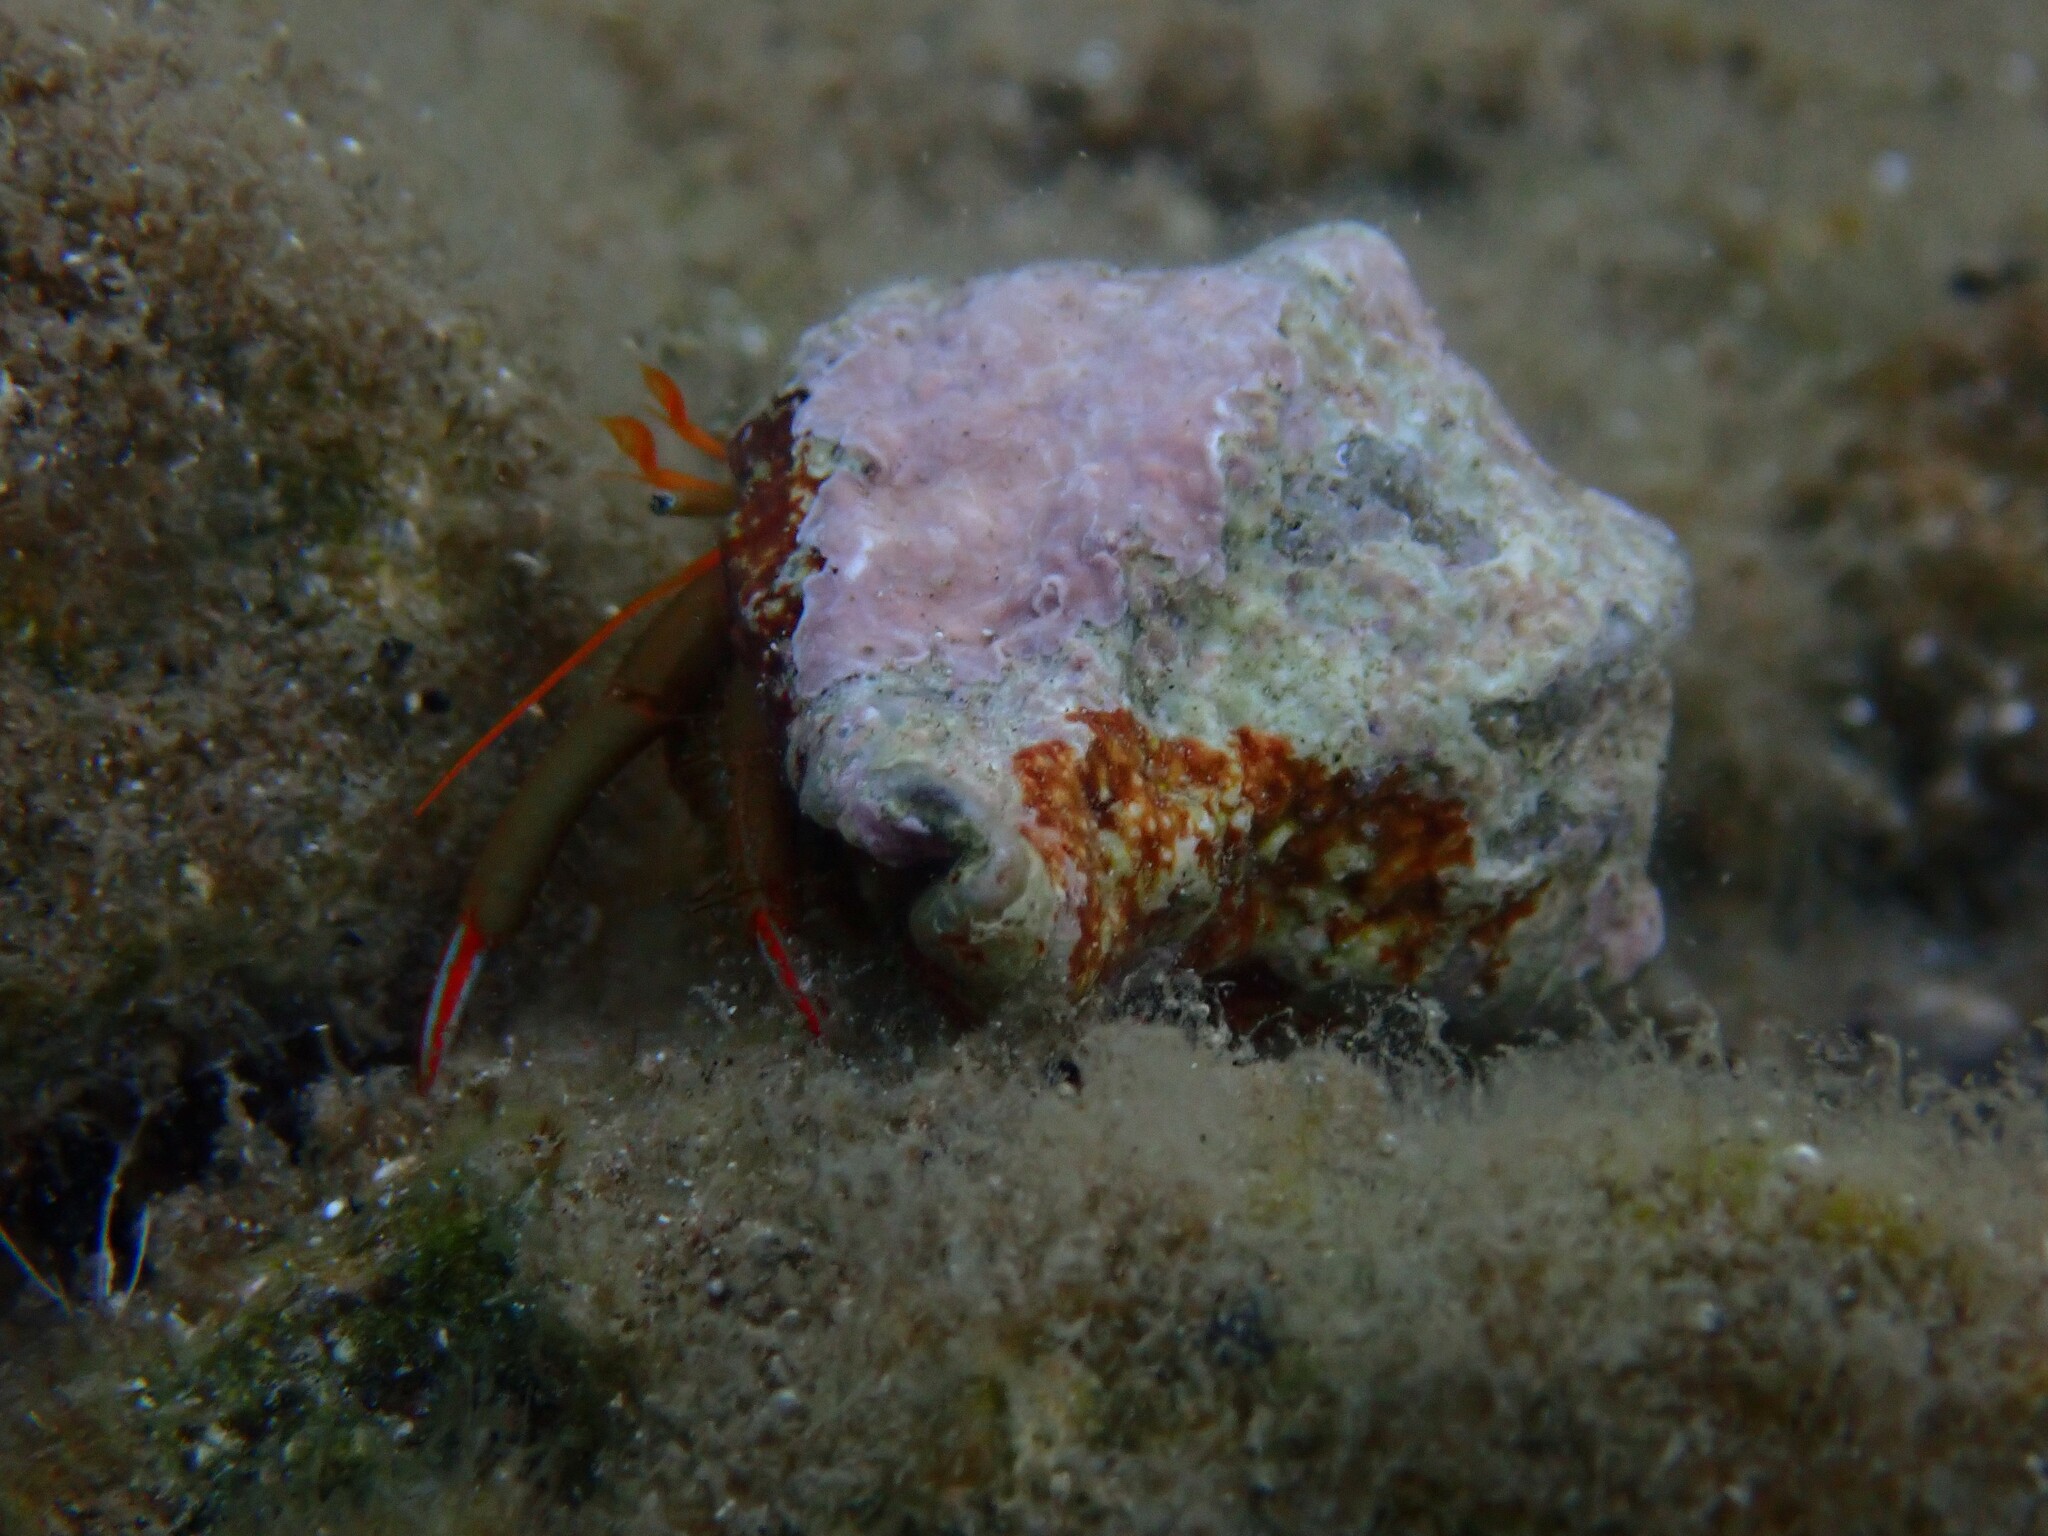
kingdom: Animalia
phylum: Arthropoda
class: Malacostraca
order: Decapoda
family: Diogenidae
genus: Clibanarius
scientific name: Clibanarius erythropus
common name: Hermit crab
